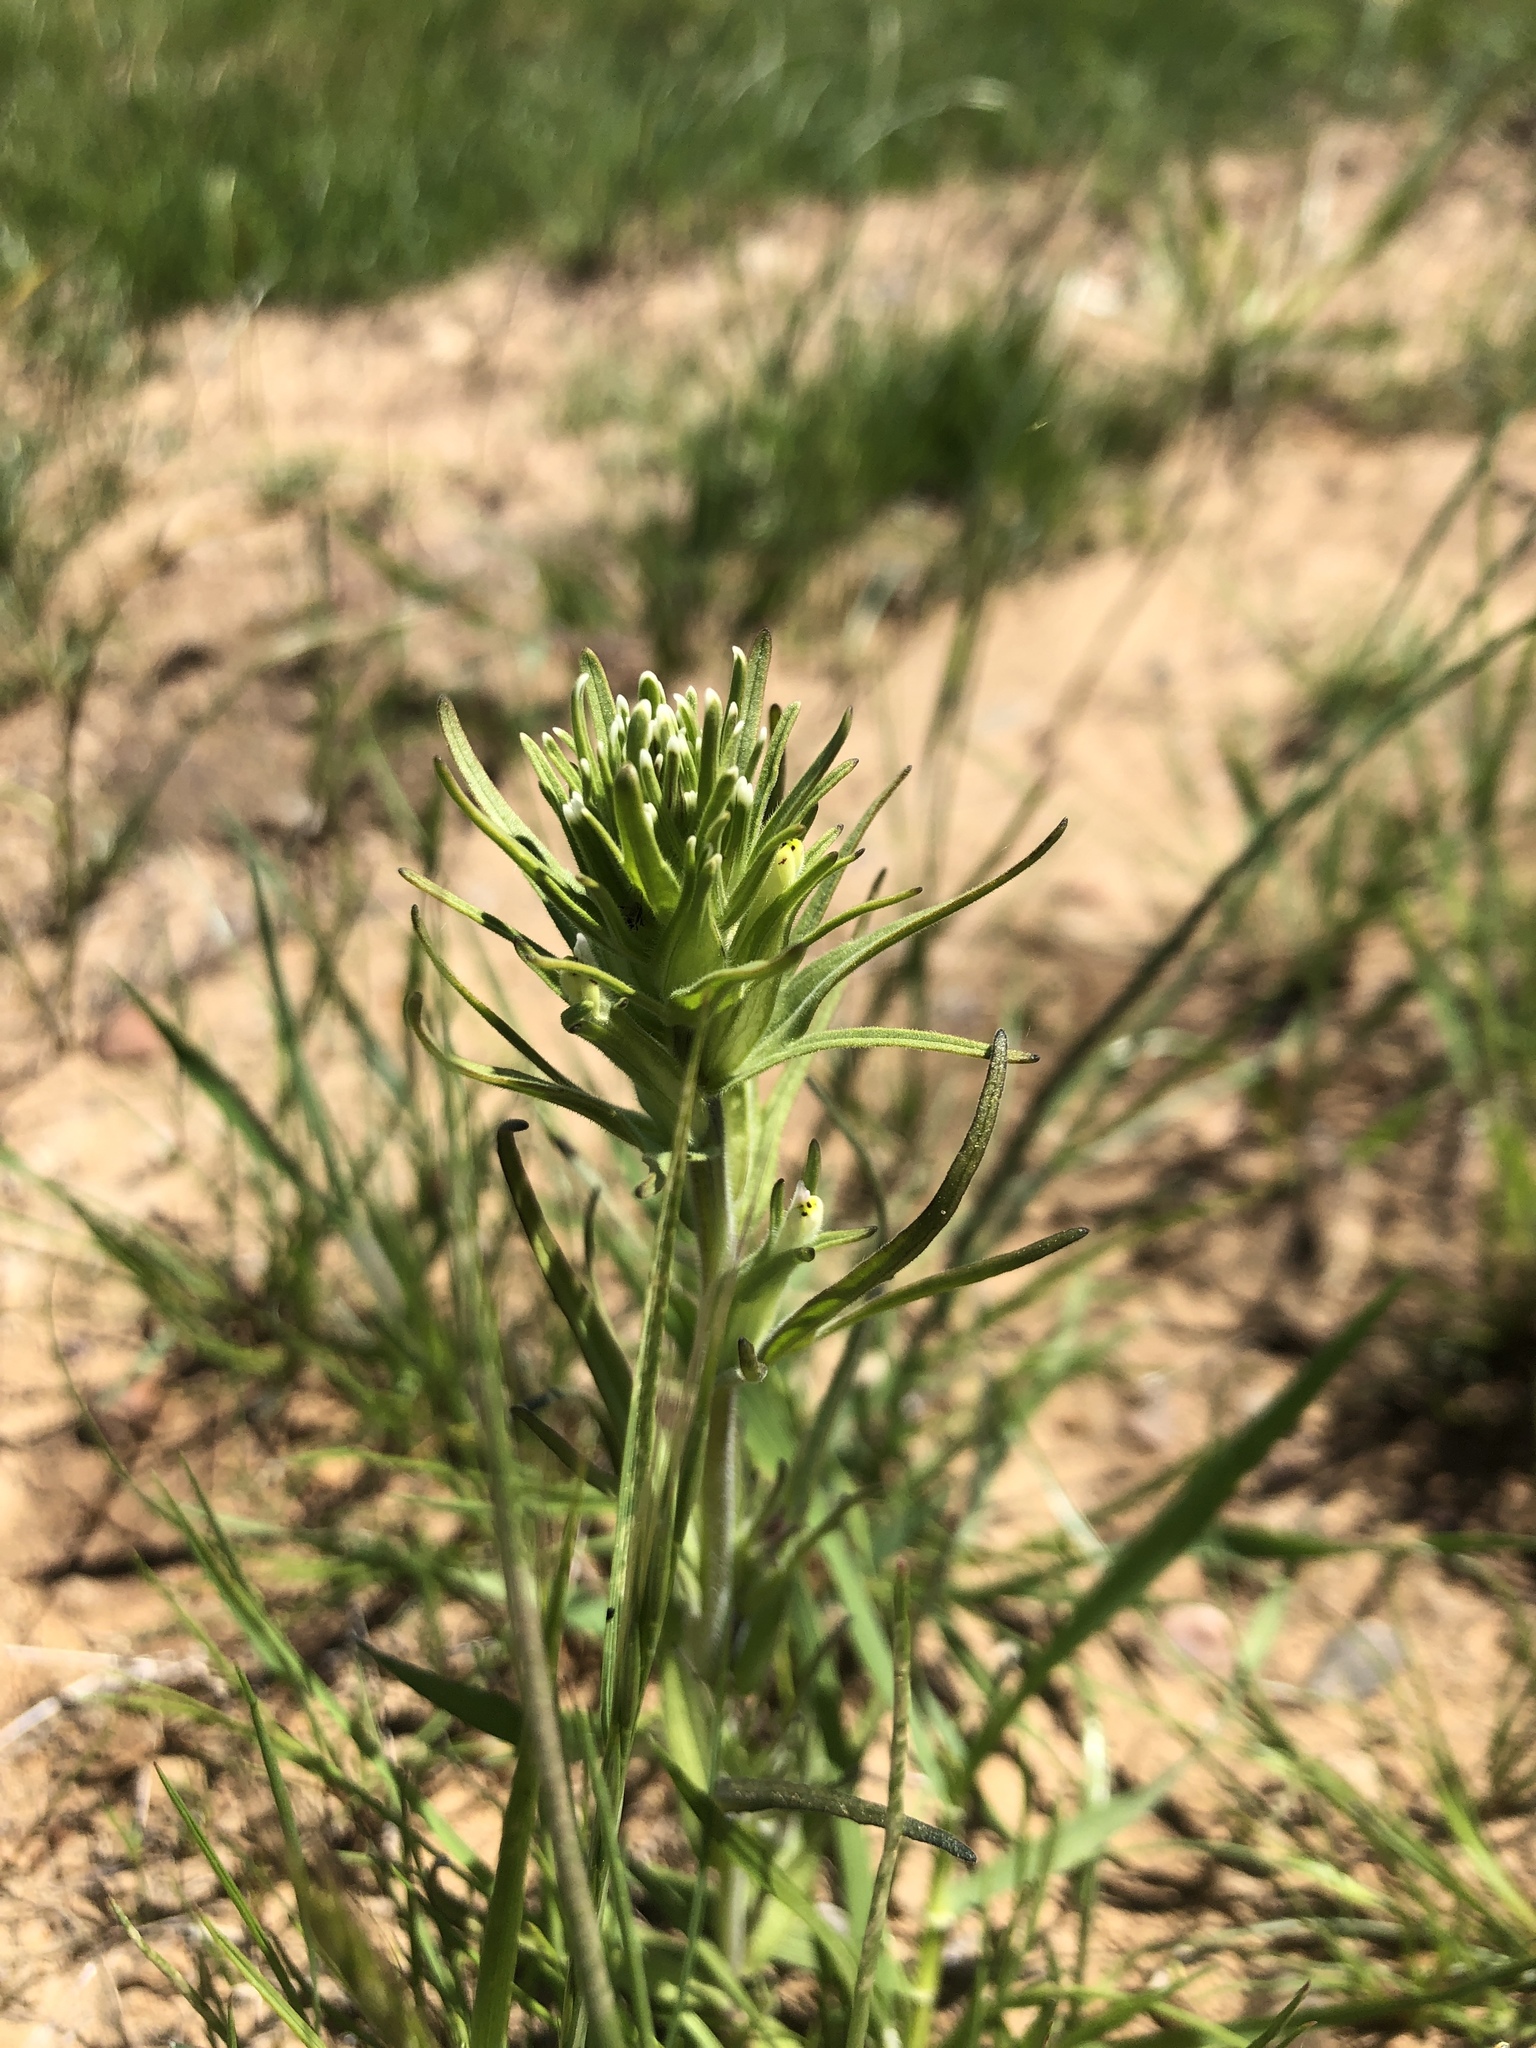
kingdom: Plantae
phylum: Tracheophyta
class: Magnoliopsida
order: Lamiales
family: Orobanchaceae
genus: Castilleja
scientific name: Castilleja attenuata
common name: Valley tassels
